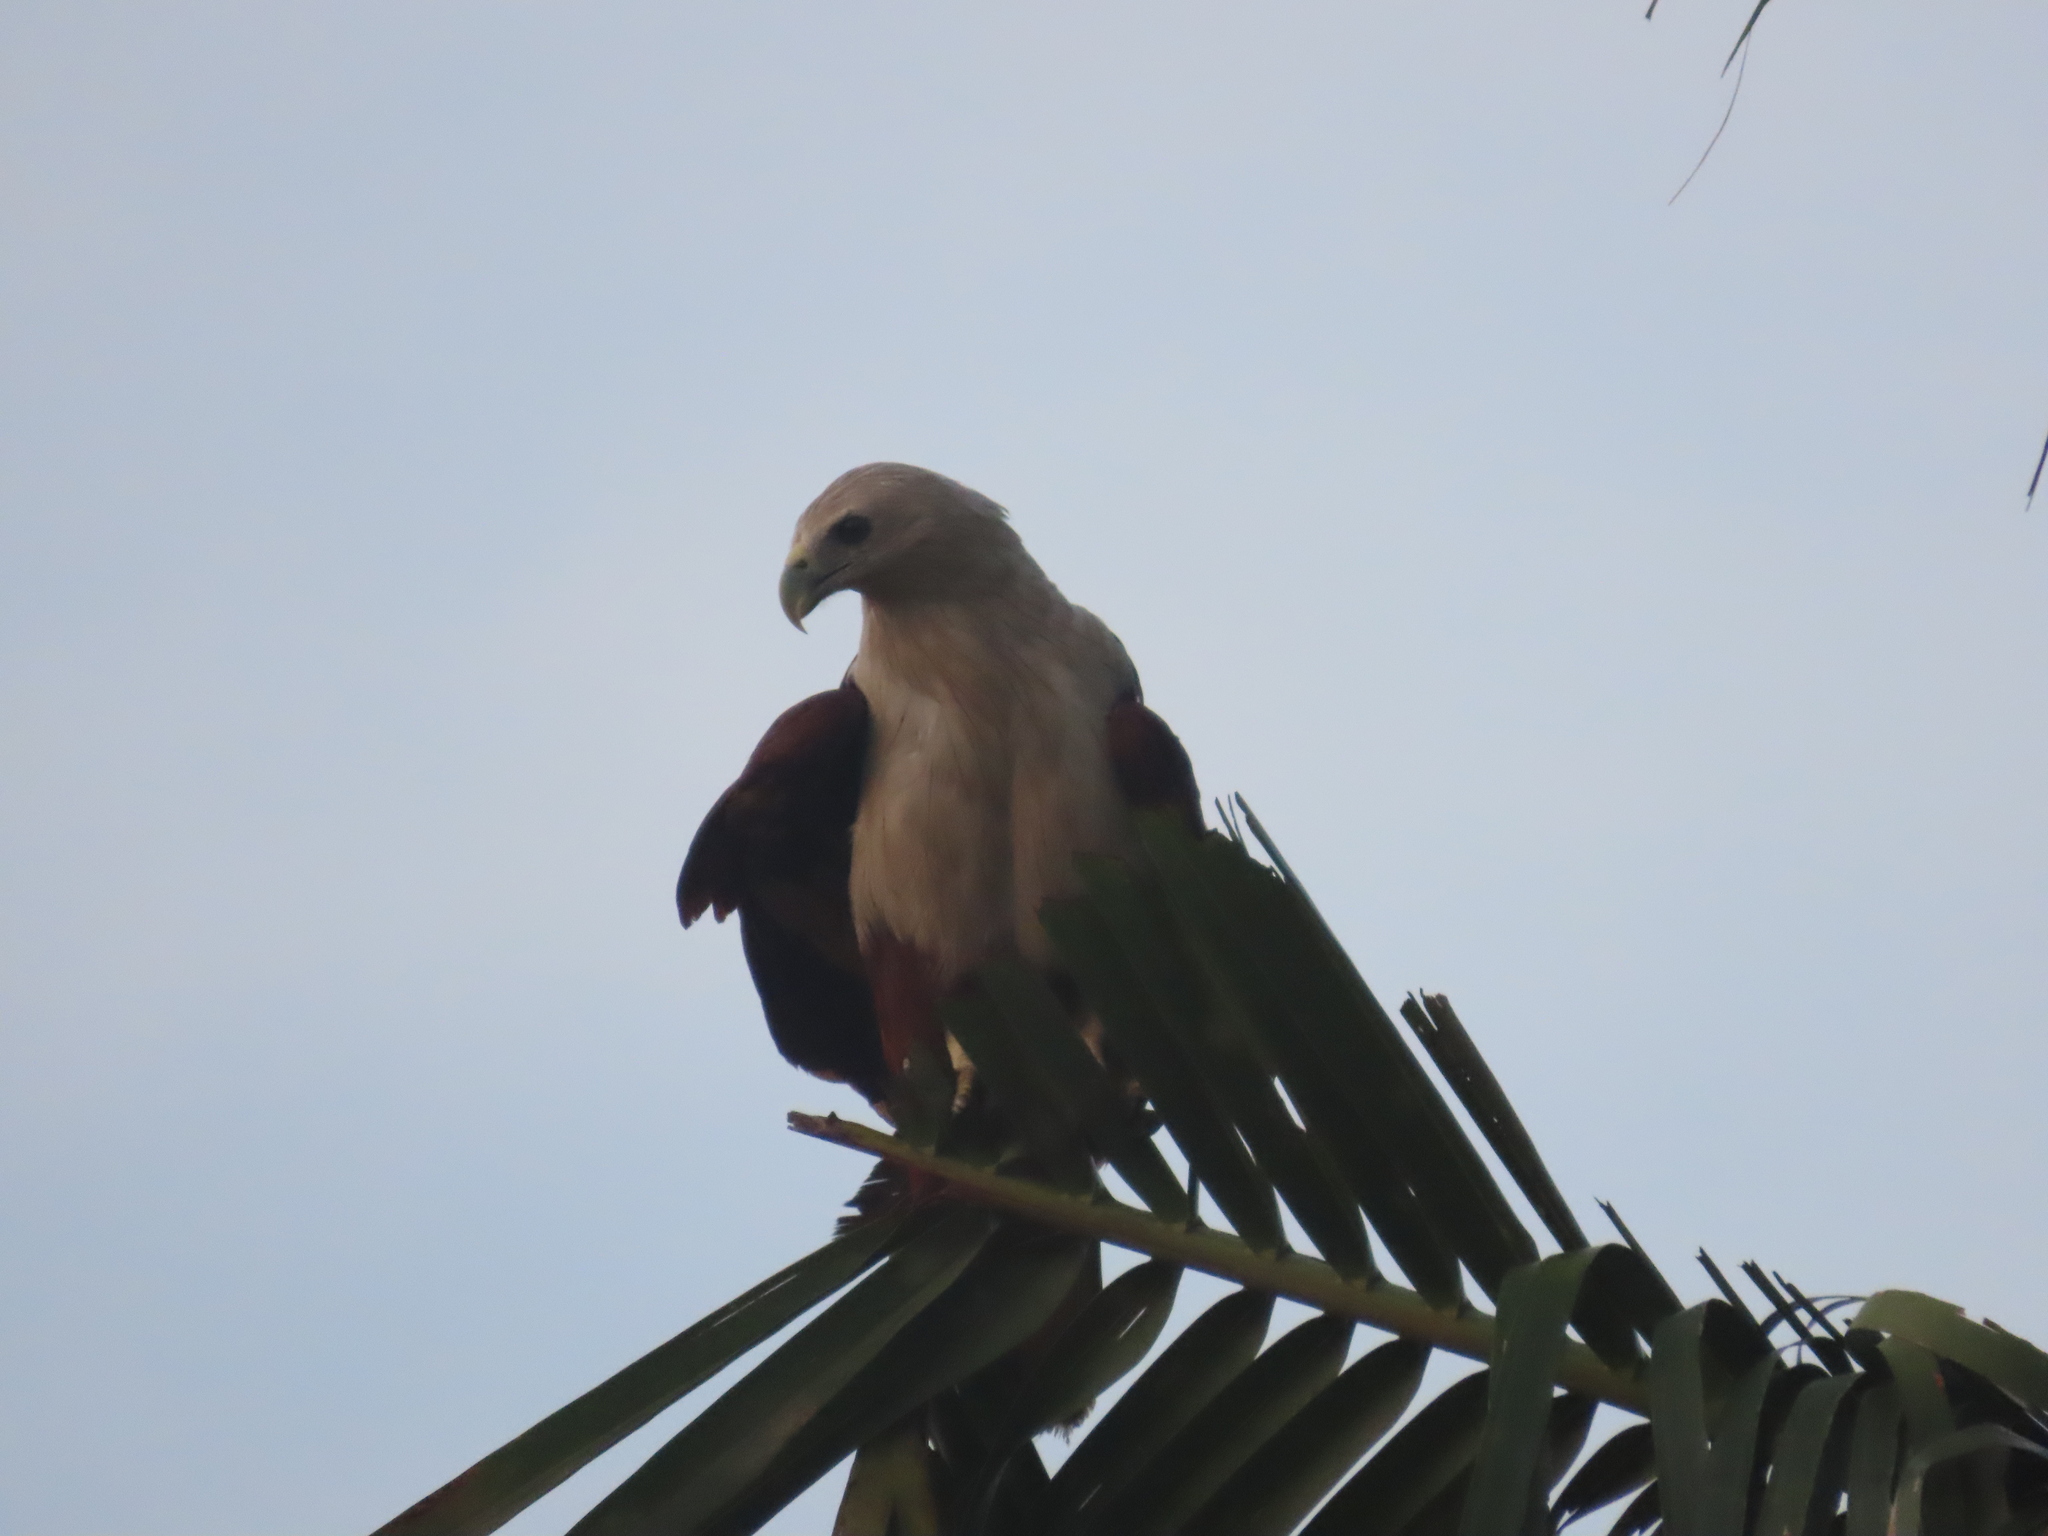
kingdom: Animalia
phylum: Chordata
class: Aves
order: Accipitriformes
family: Accipitridae
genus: Haliastur
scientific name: Haliastur indus
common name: Brahminy kite
